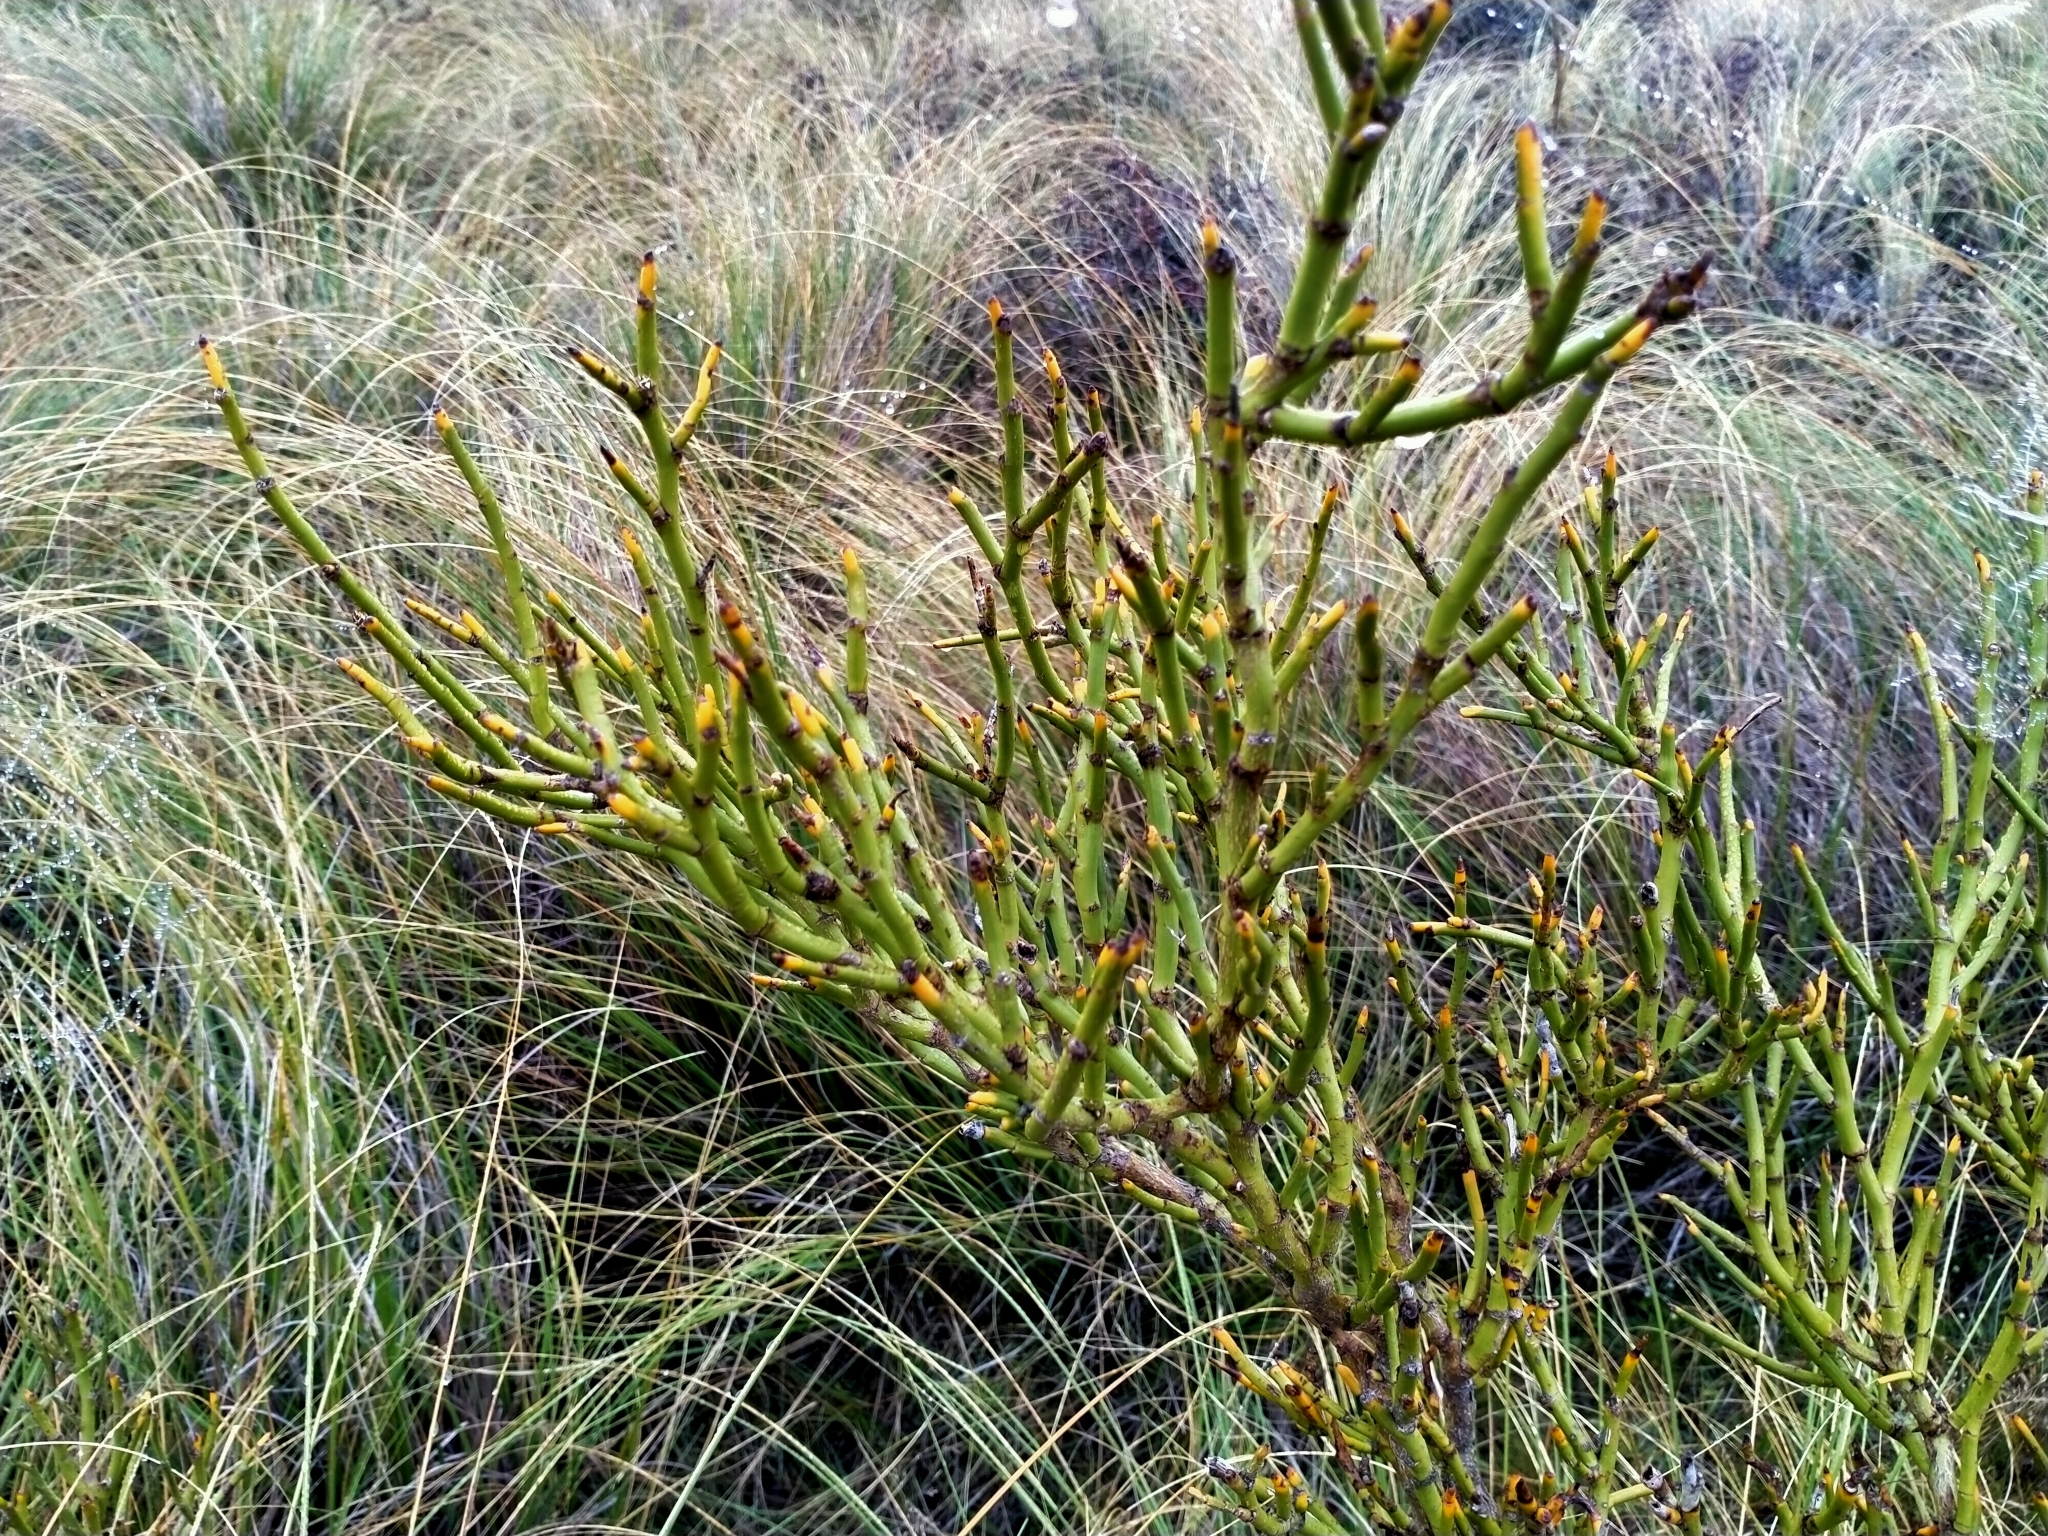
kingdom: Plantae
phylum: Tracheophyta
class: Magnoliopsida
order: Fabales
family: Fabaceae
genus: Carmichaelia
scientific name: Carmichaelia petriei
